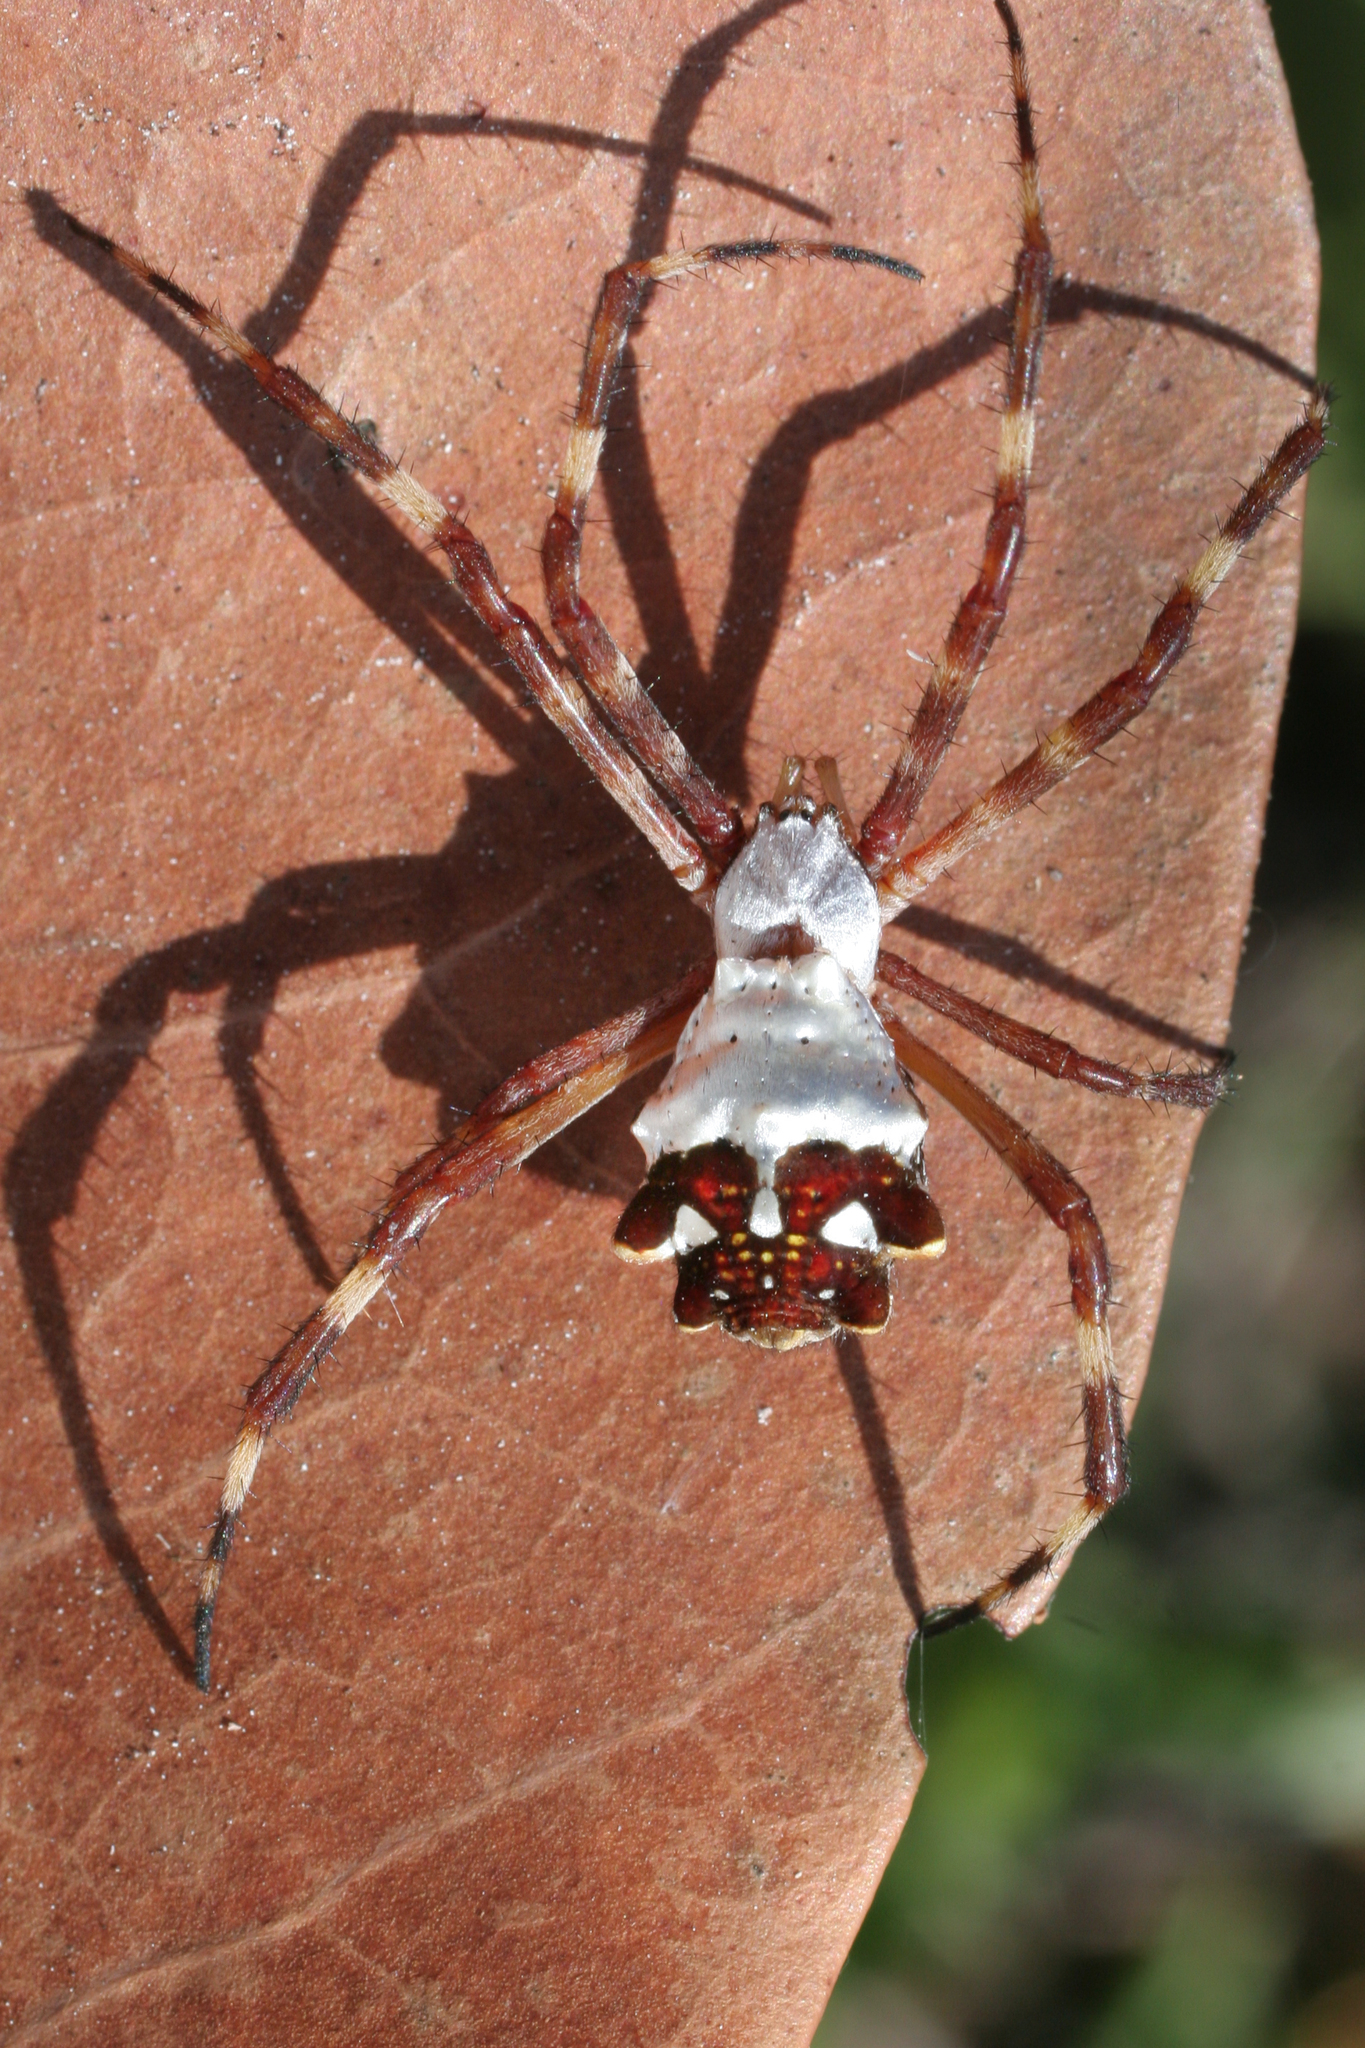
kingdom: Animalia
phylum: Arthropoda
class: Arachnida
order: Araneae
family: Araneidae
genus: Argiope
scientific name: Argiope argentata
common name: Orb weavers
